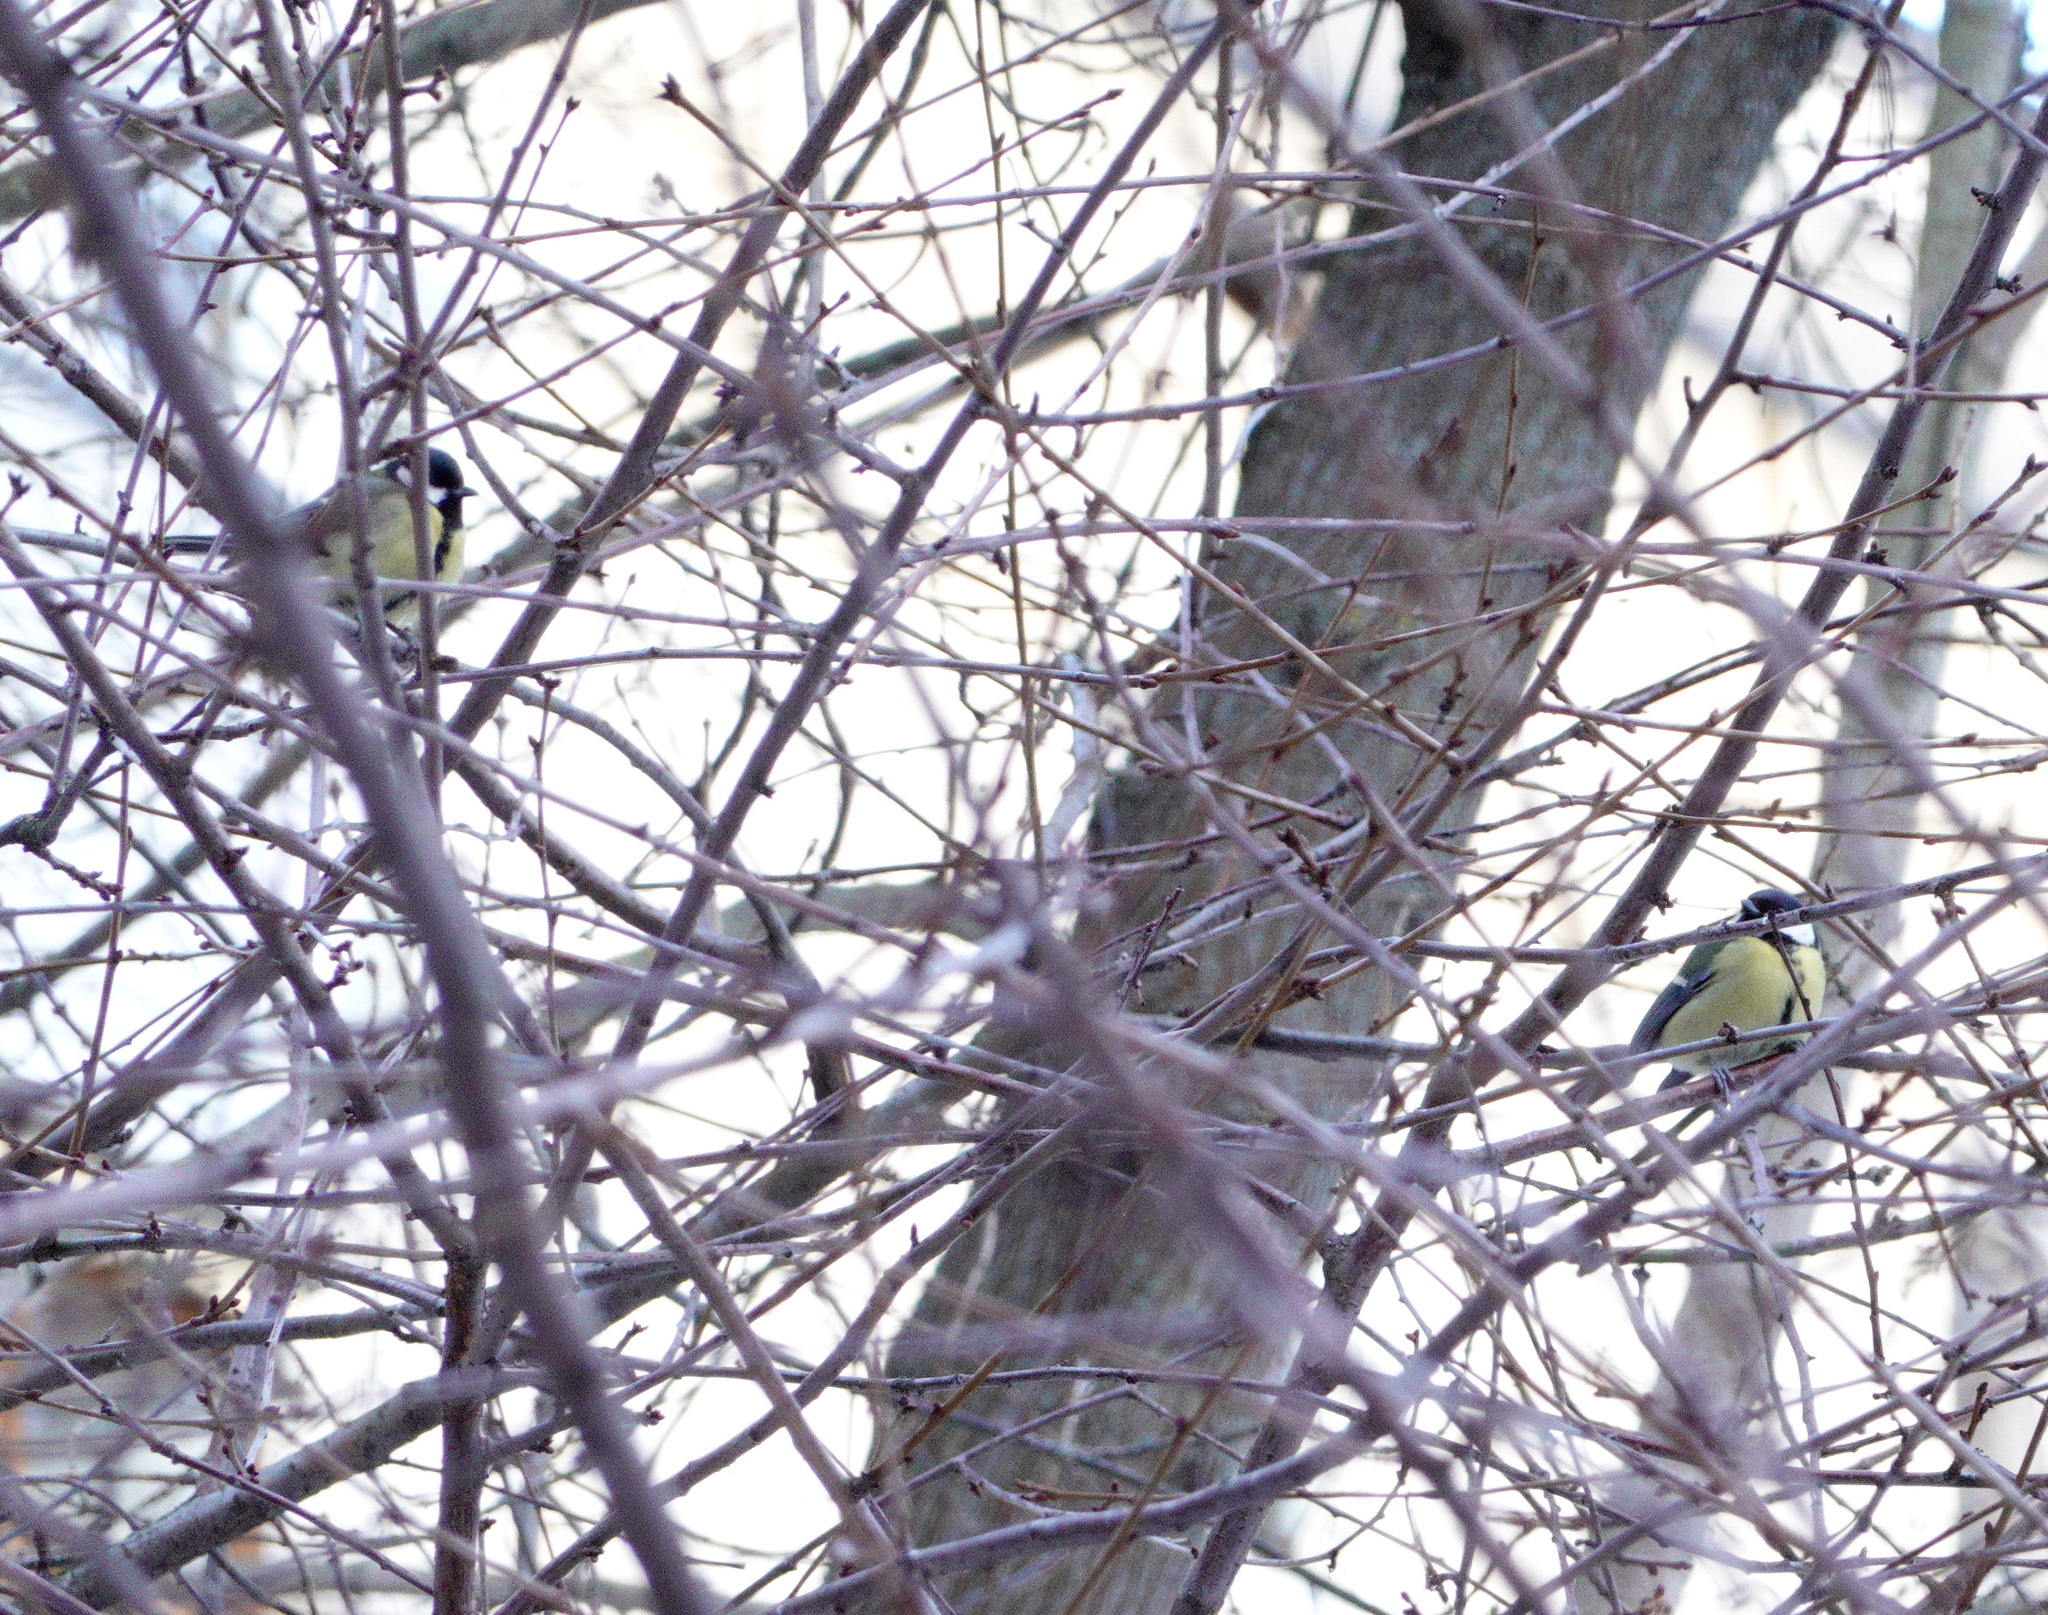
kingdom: Animalia
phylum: Chordata
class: Aves
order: Passeriformes
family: Paridae
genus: Parus
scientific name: Parus major
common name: Great tit
